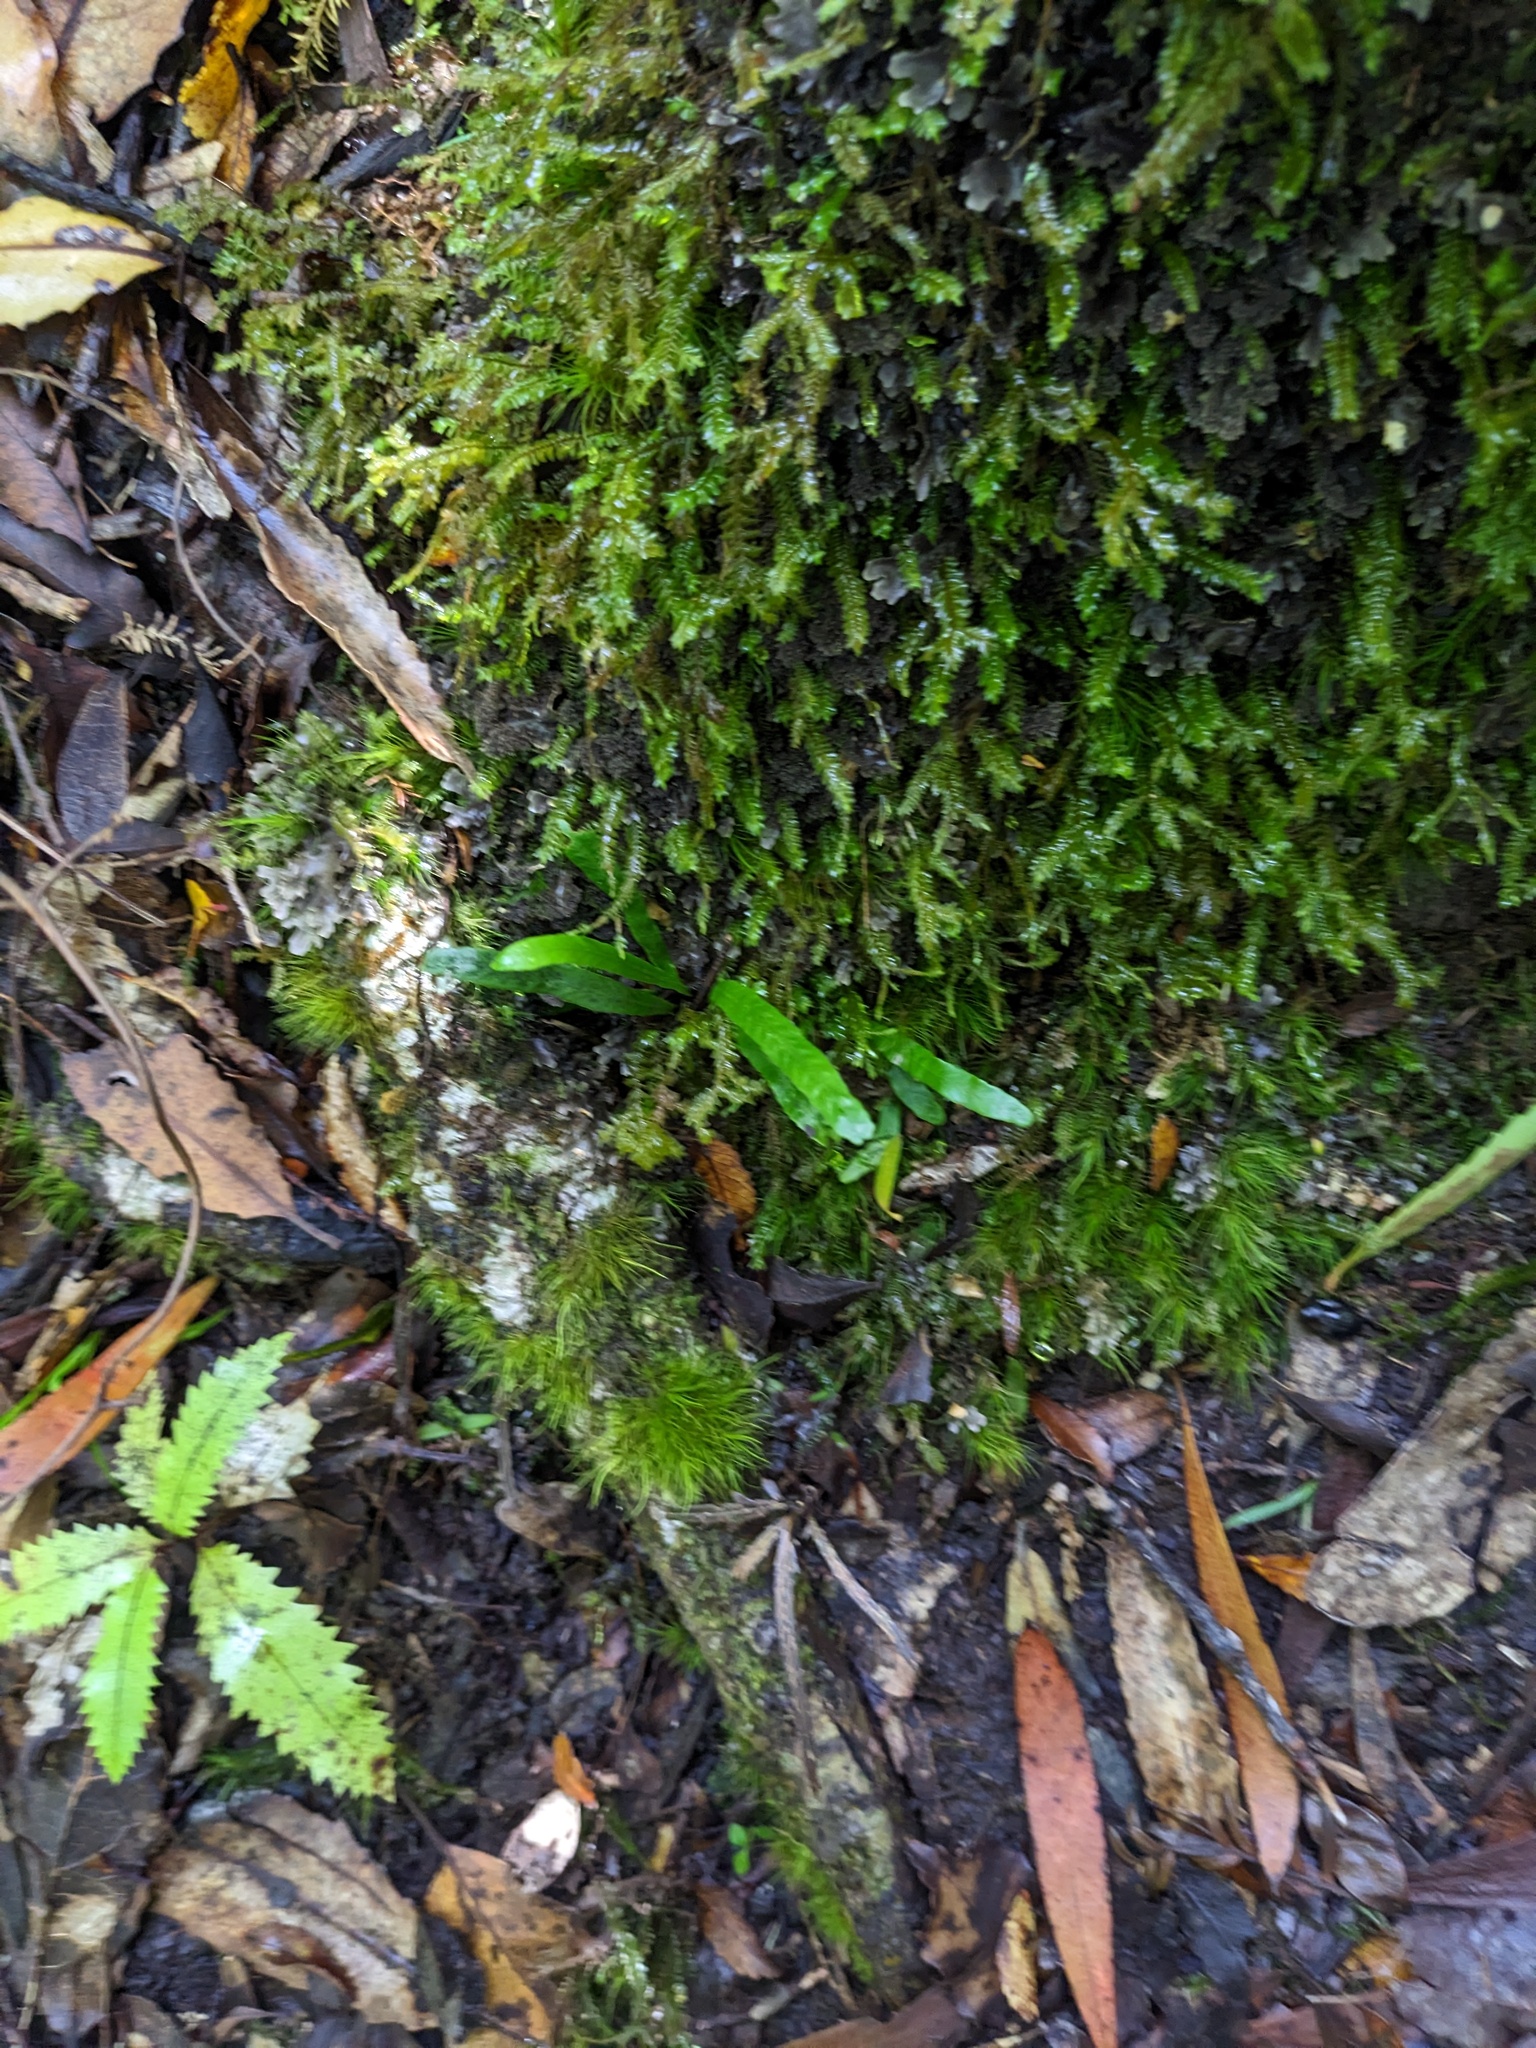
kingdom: Plantae
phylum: Tracheophyta
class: Polypodiopsida
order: Polypodiales
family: Polypodiaceae
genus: Notogrammitis
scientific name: Notogrammitis billardierei
